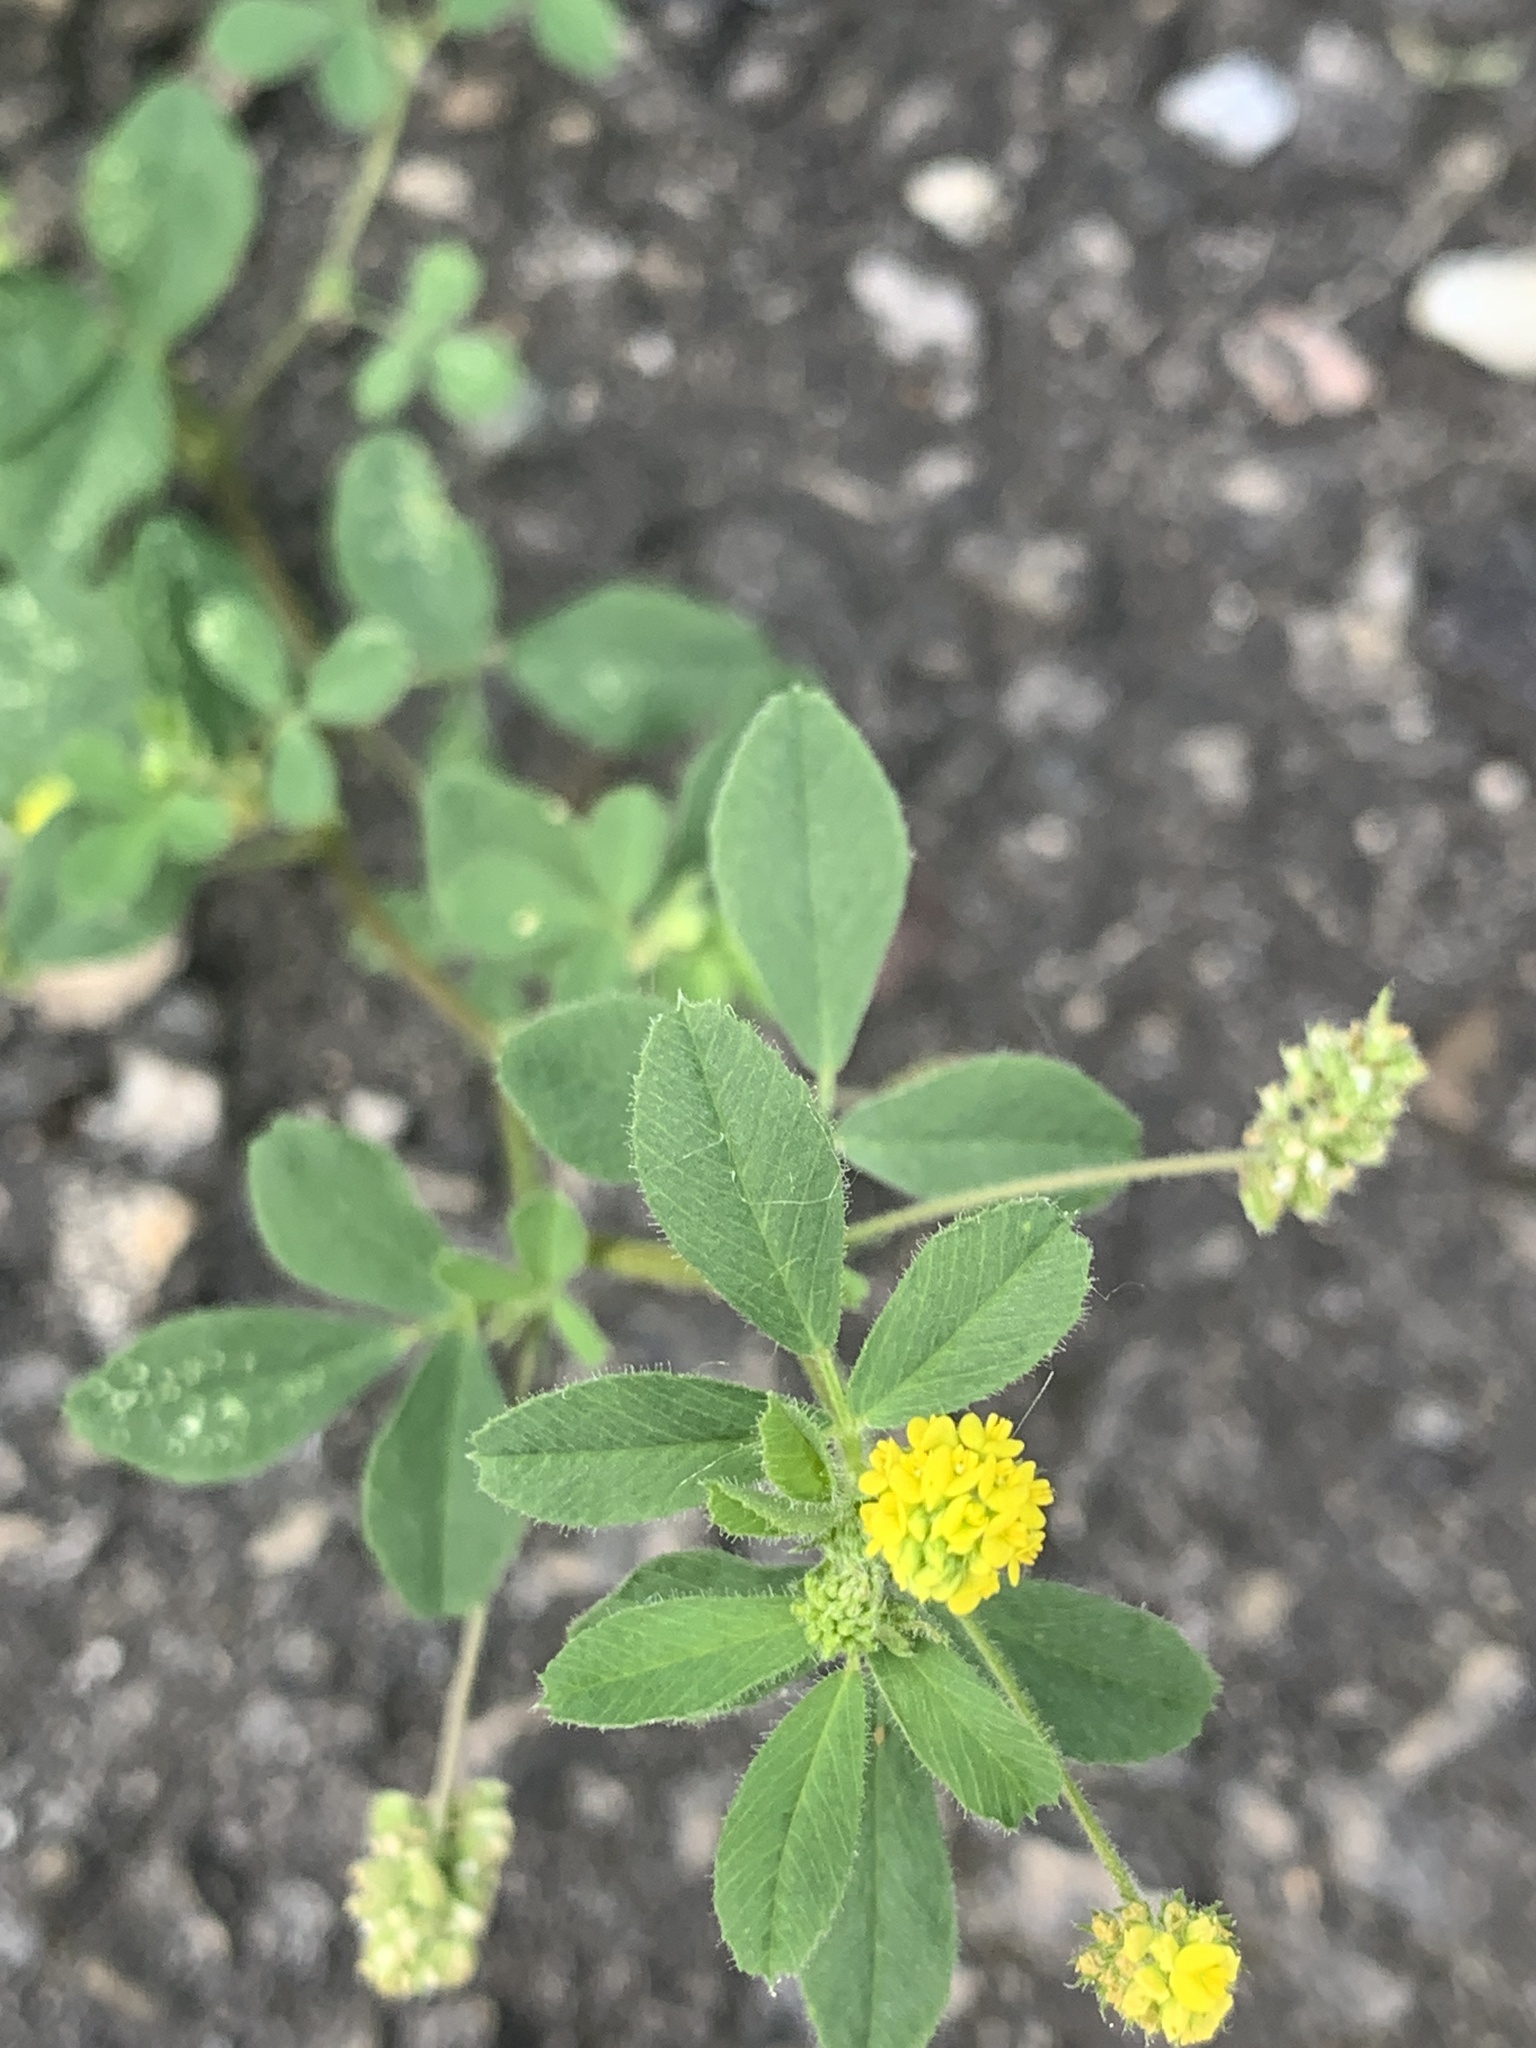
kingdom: Plantae
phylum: Tracheophyta
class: Magnoliopsida
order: Fabales
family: Fabaceae
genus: Medicago
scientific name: Medicago lupulina
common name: Black medick
